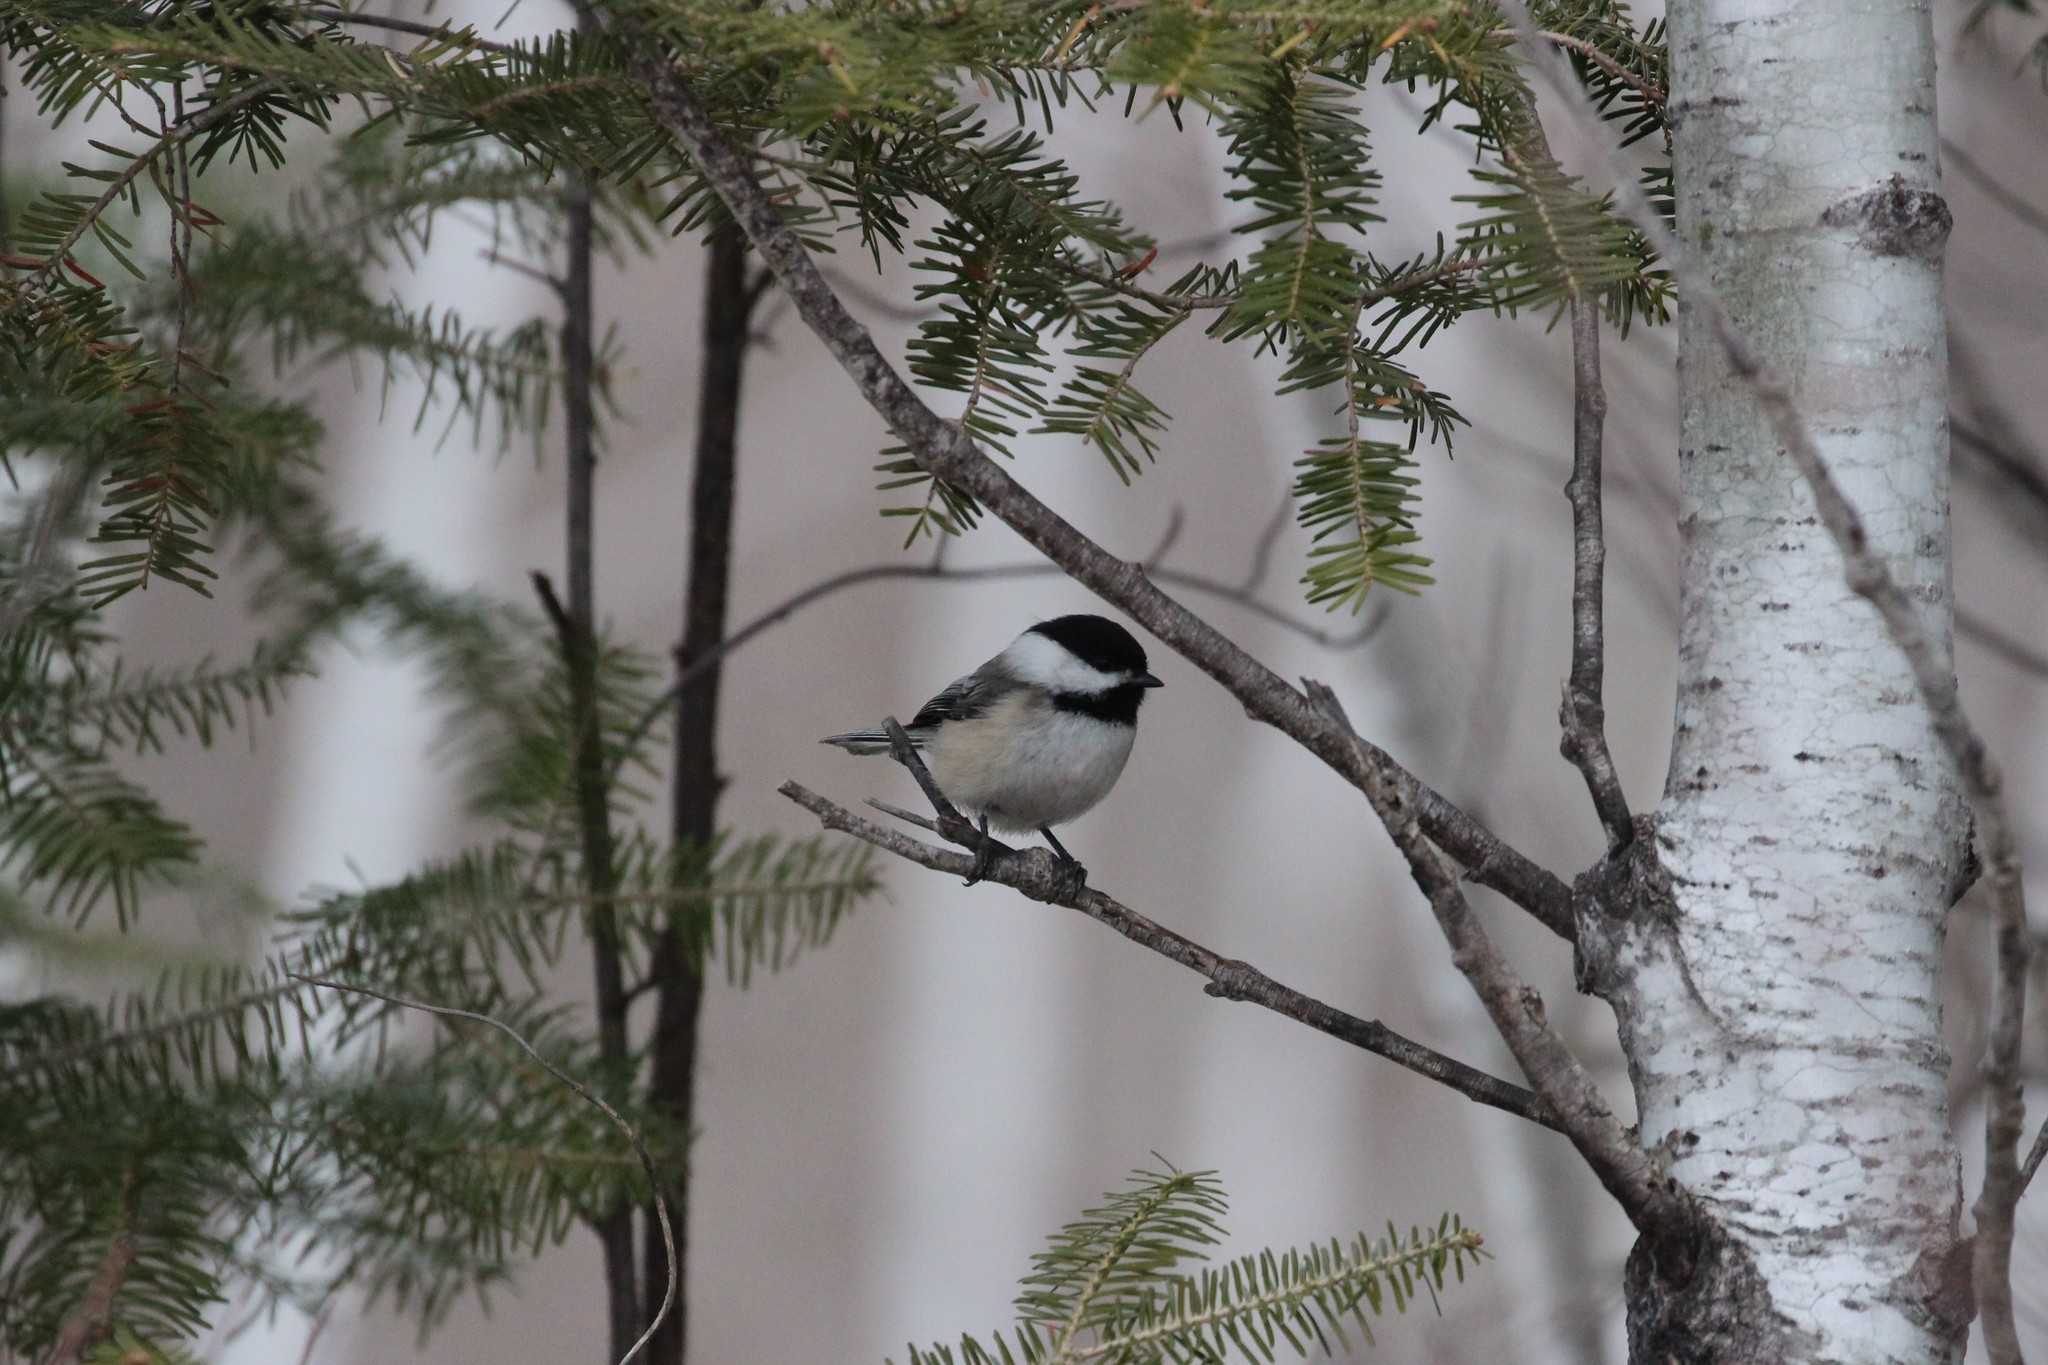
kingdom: Animalia
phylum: Chordata
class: Aves
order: Passeriformes
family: Paridae
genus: Poecile
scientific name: Poecile atricapillus
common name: Black-capped chickadee
